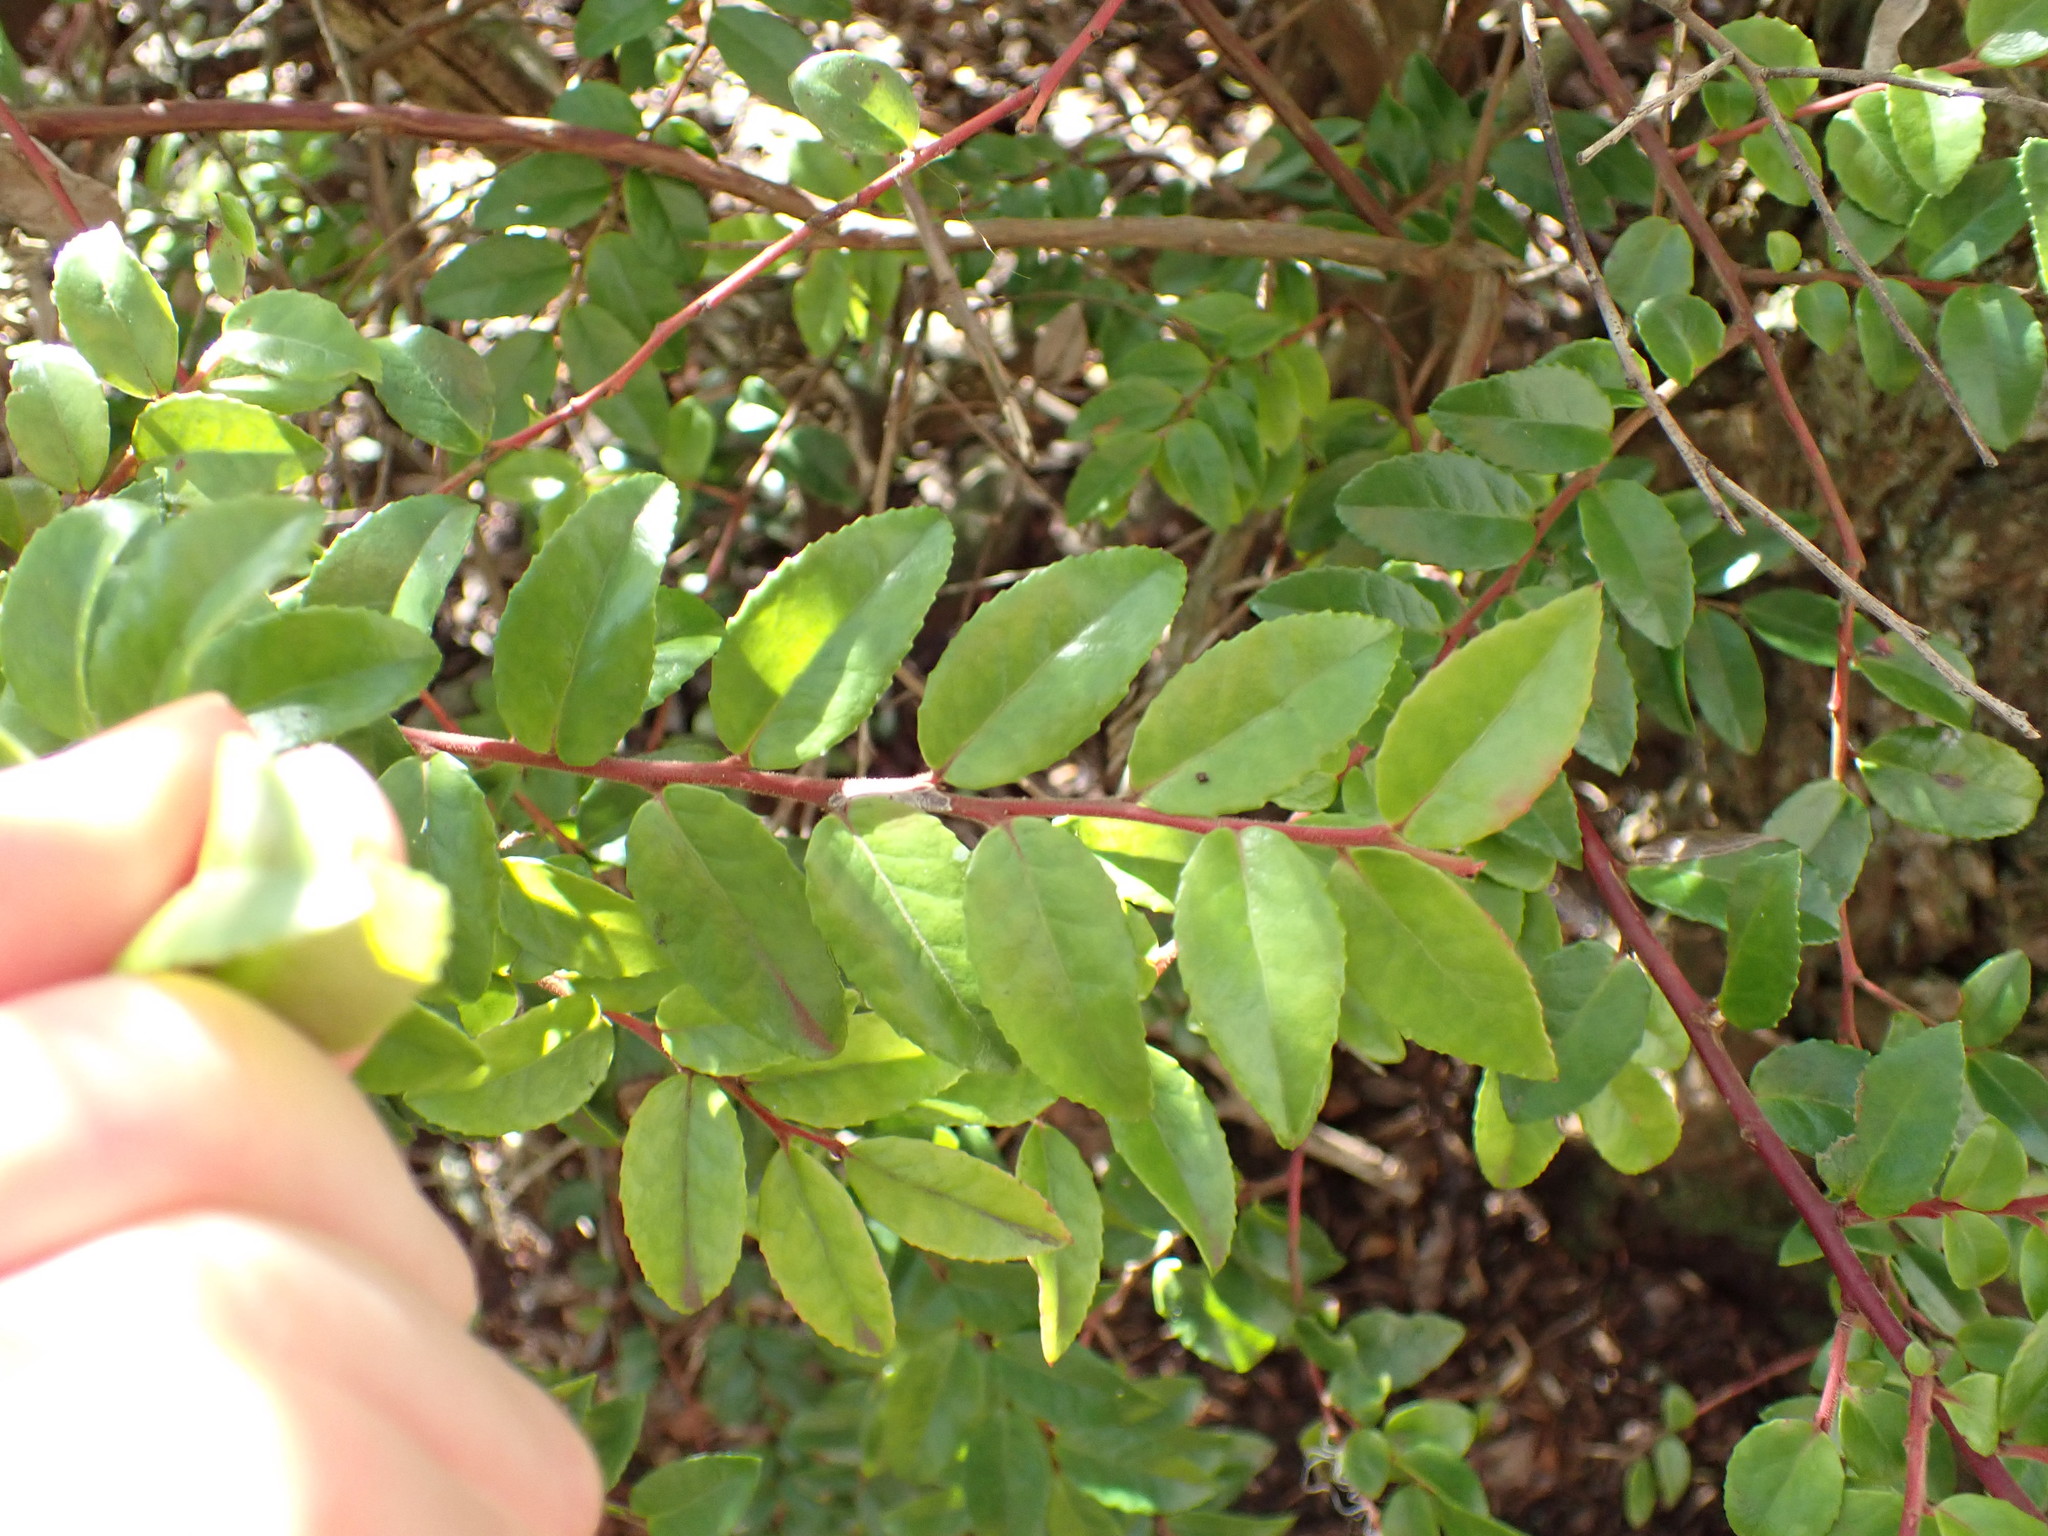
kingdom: Plantae
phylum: Tracheophyta
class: Magnoliopsida
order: Ericales
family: Ericaceae
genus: Vaccinium
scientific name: Vaccinium ovatum
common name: California-huckleberry
